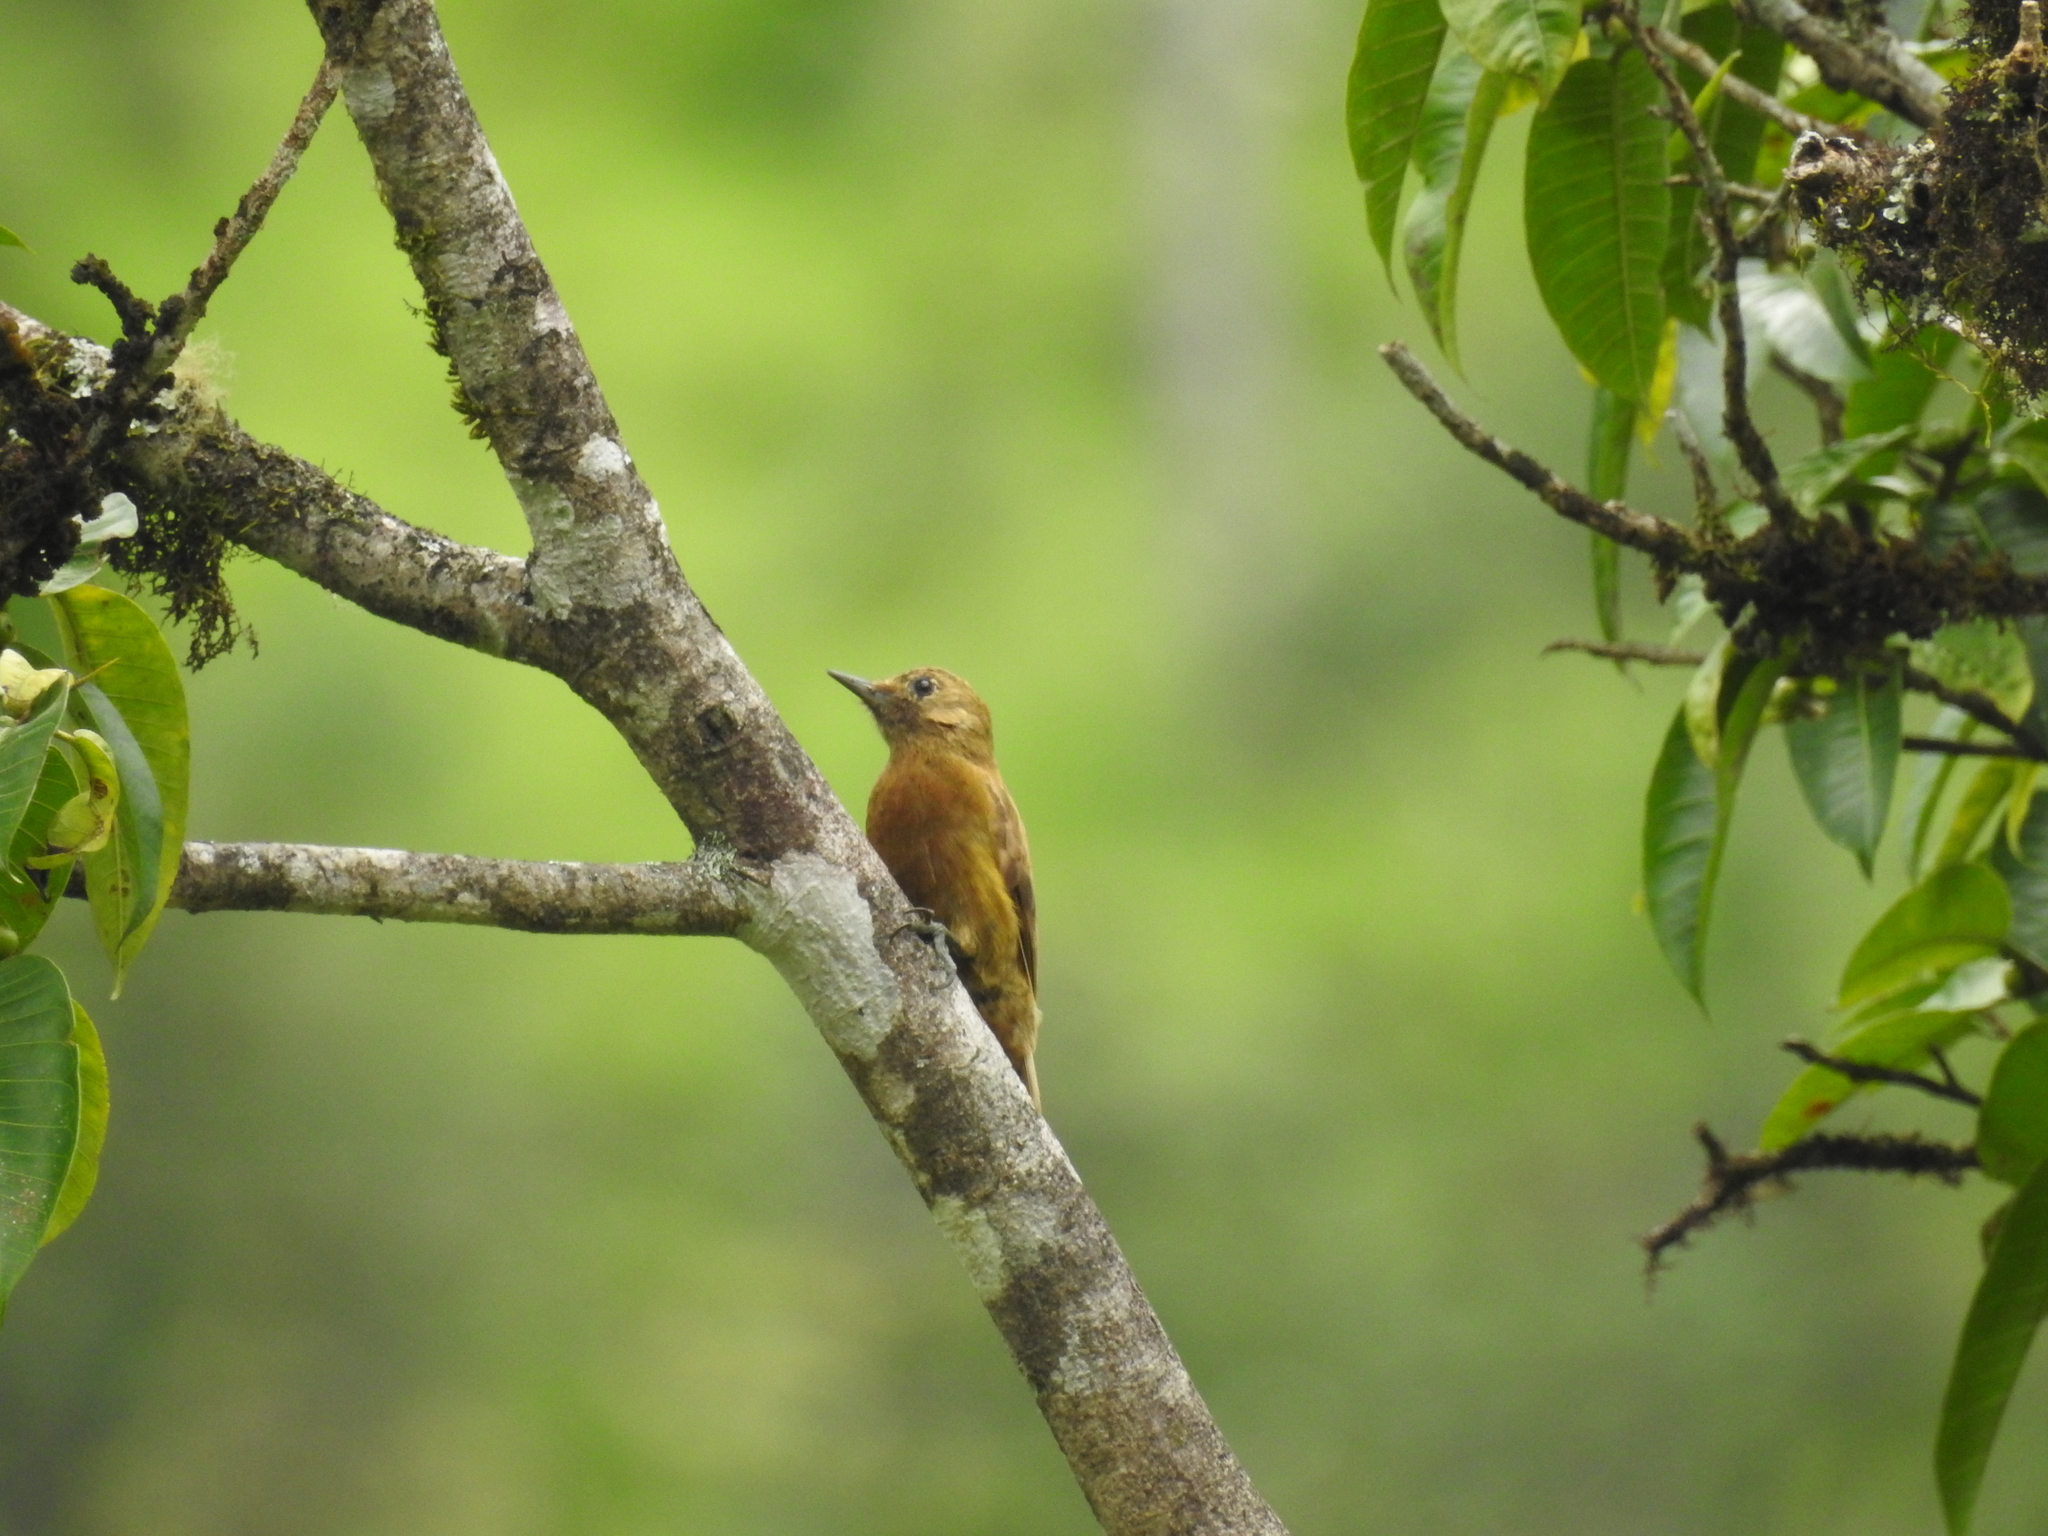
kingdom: Animalia
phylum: Chordata
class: Aves
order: Piciformes
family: Picidae
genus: Leuconotopicus
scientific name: Leuconotopicus fumigatus
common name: Smoky-brown woodpecker
